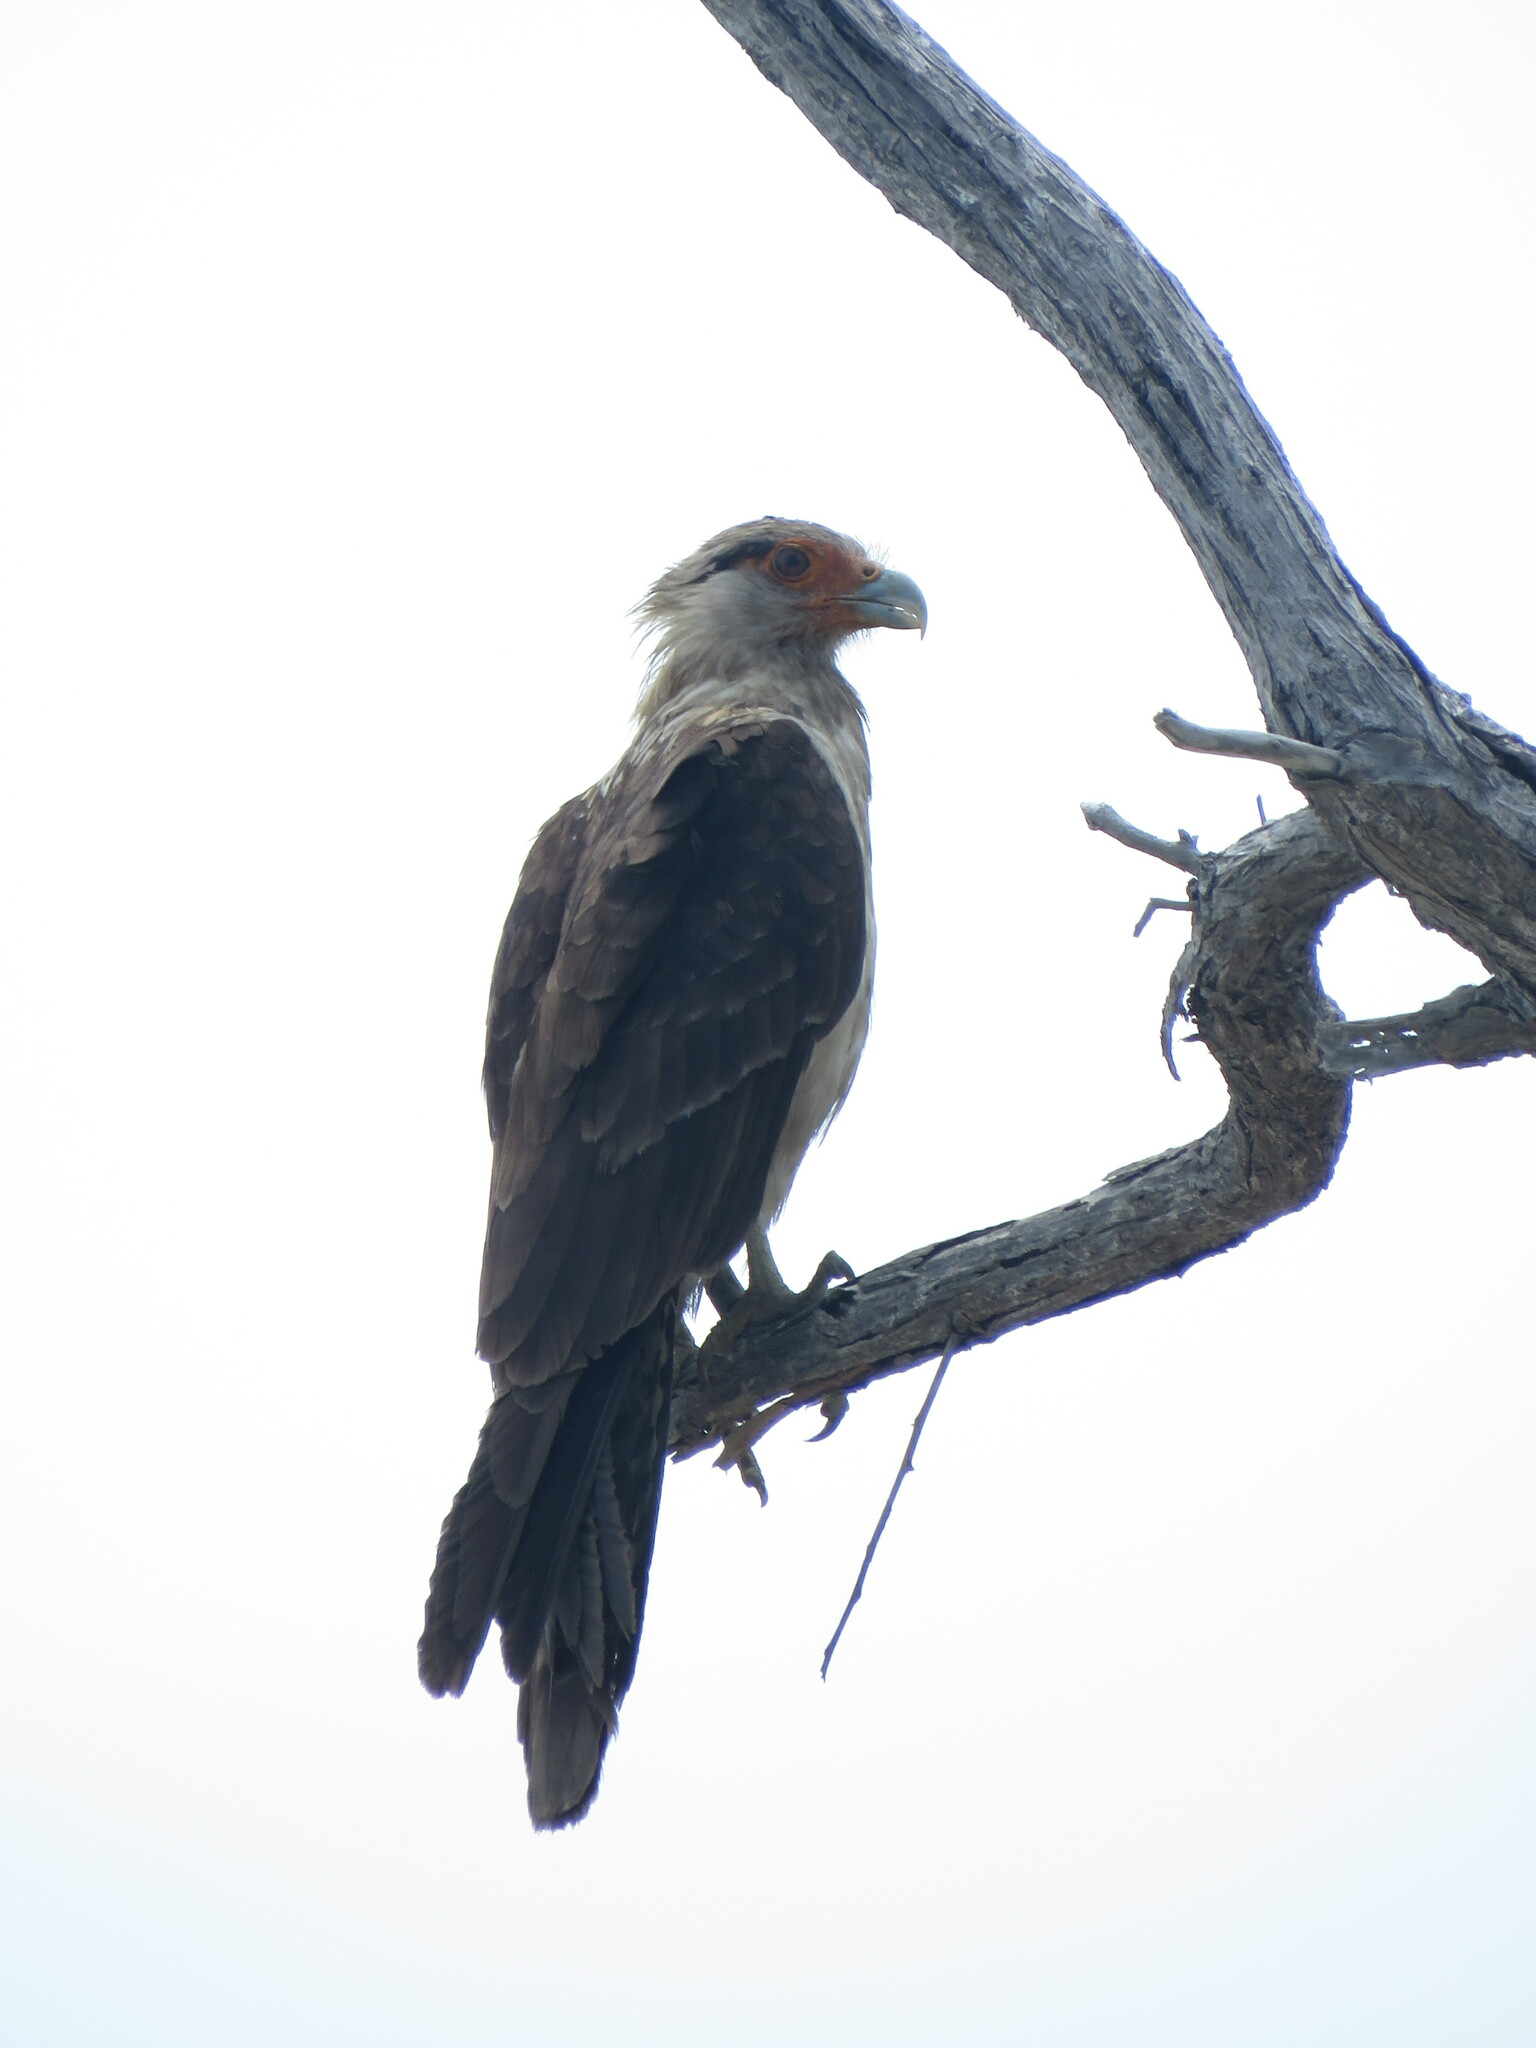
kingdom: Animalia
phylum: Chordata
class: Aves
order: Falconiformes
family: Falconidae
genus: Daptrius
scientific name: Daptrius
